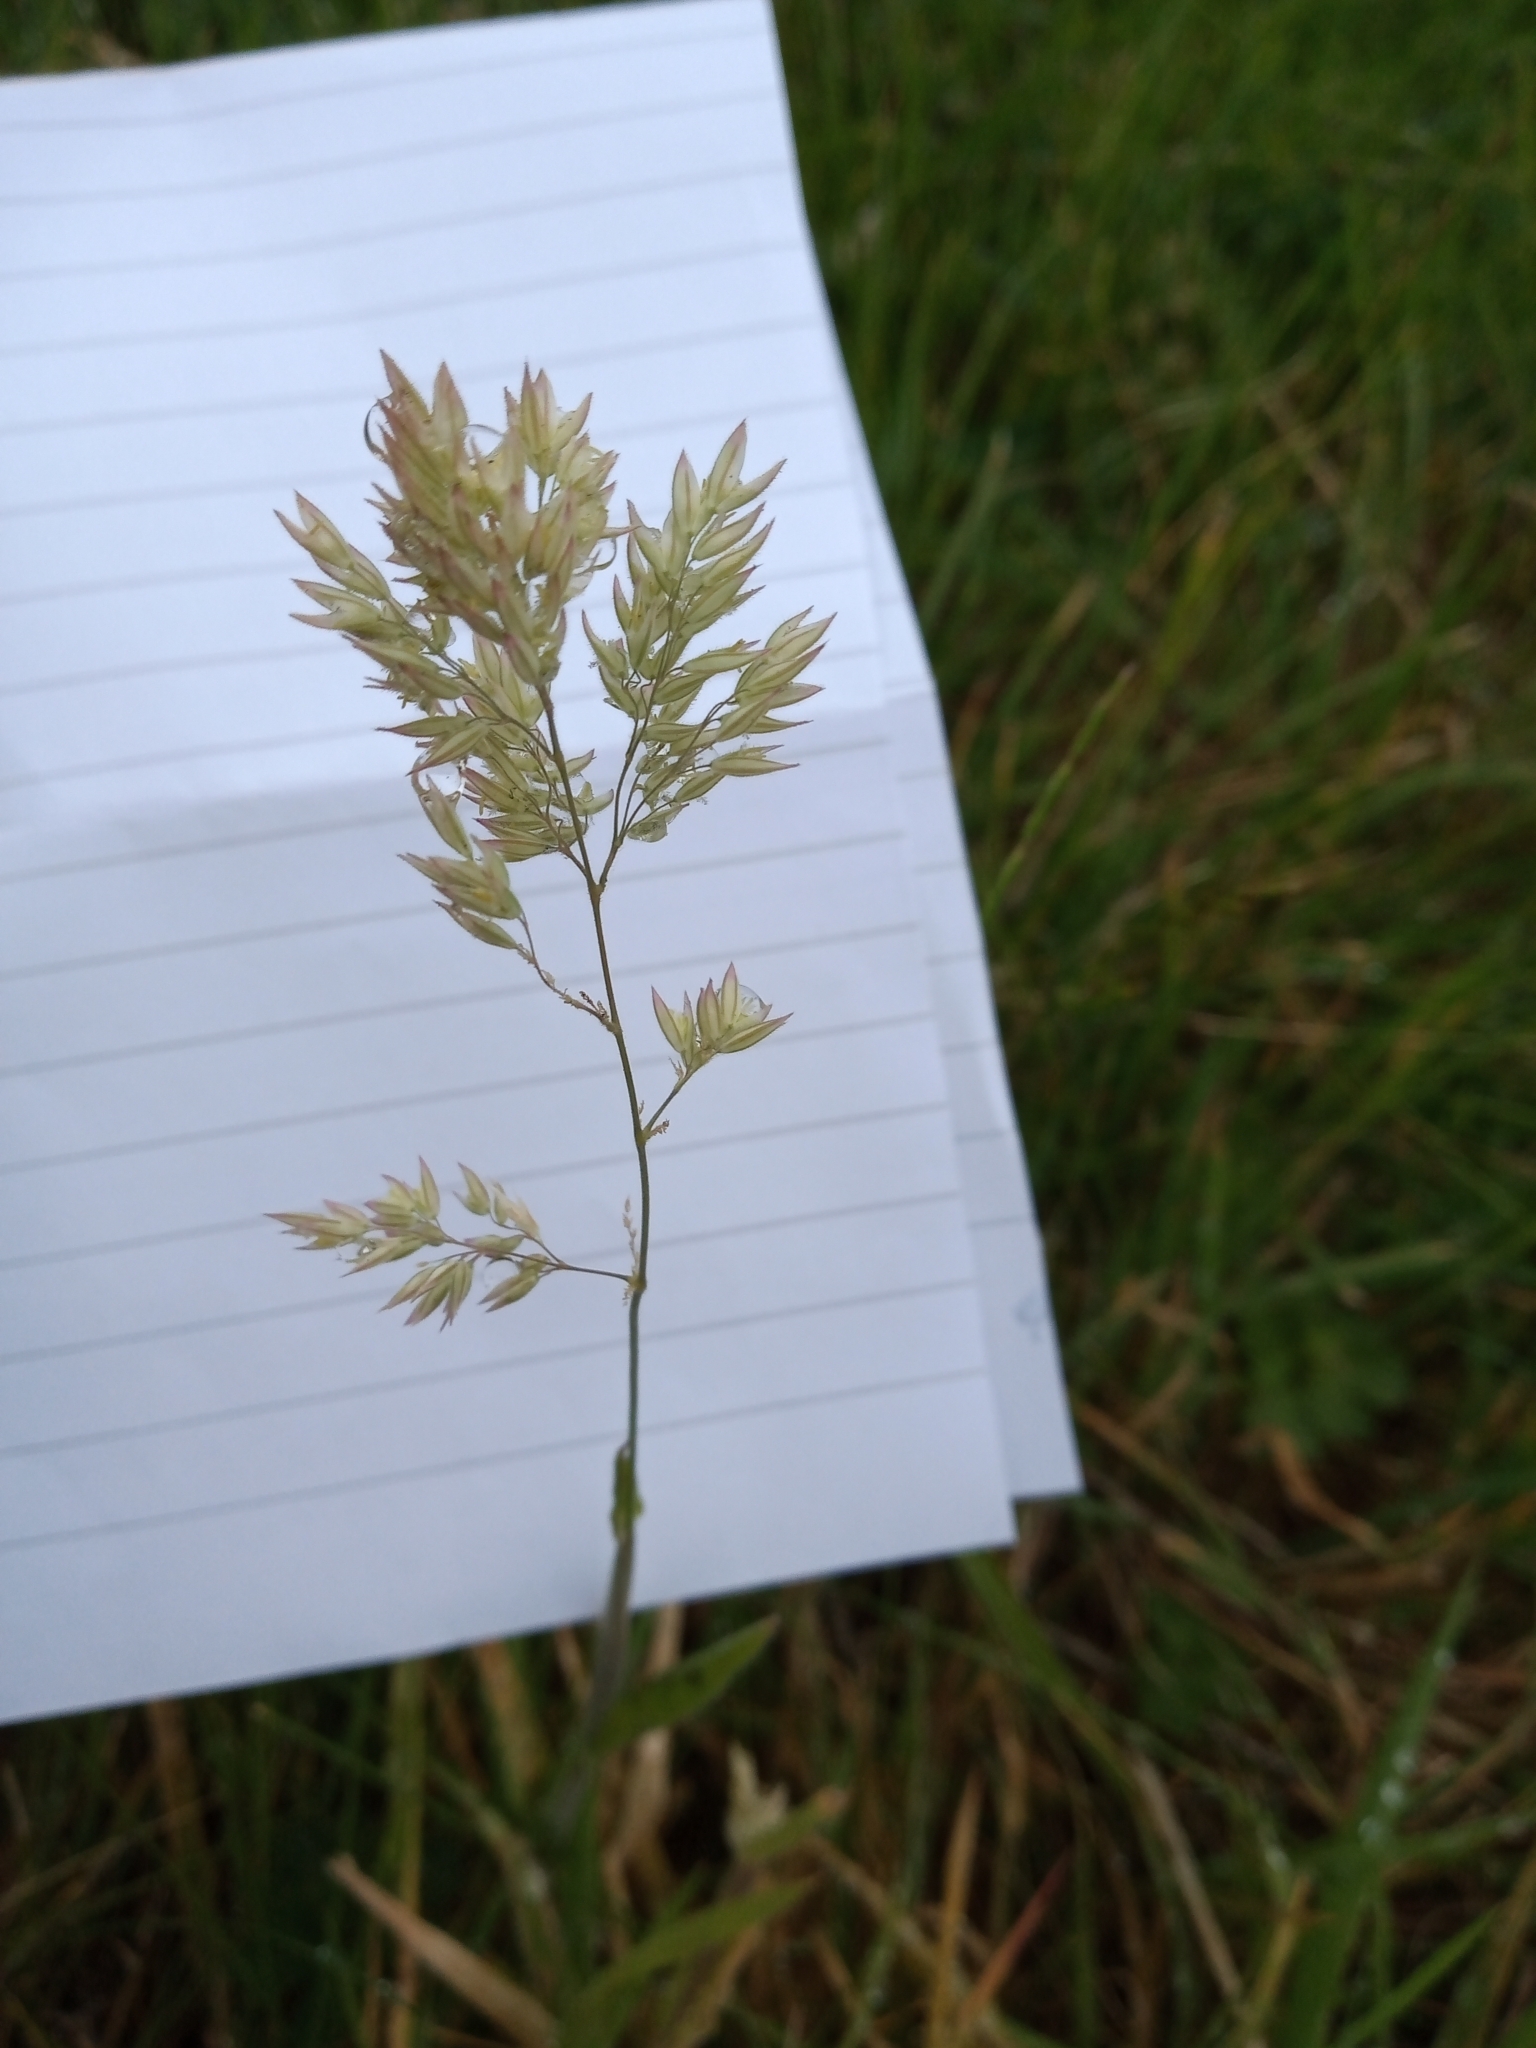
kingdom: Plantae
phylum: Tracheophyta
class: Liliopsida
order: Poales
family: Poaceae
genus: Holcus
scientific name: Holcus lanatus
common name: Yorkshire-fog
